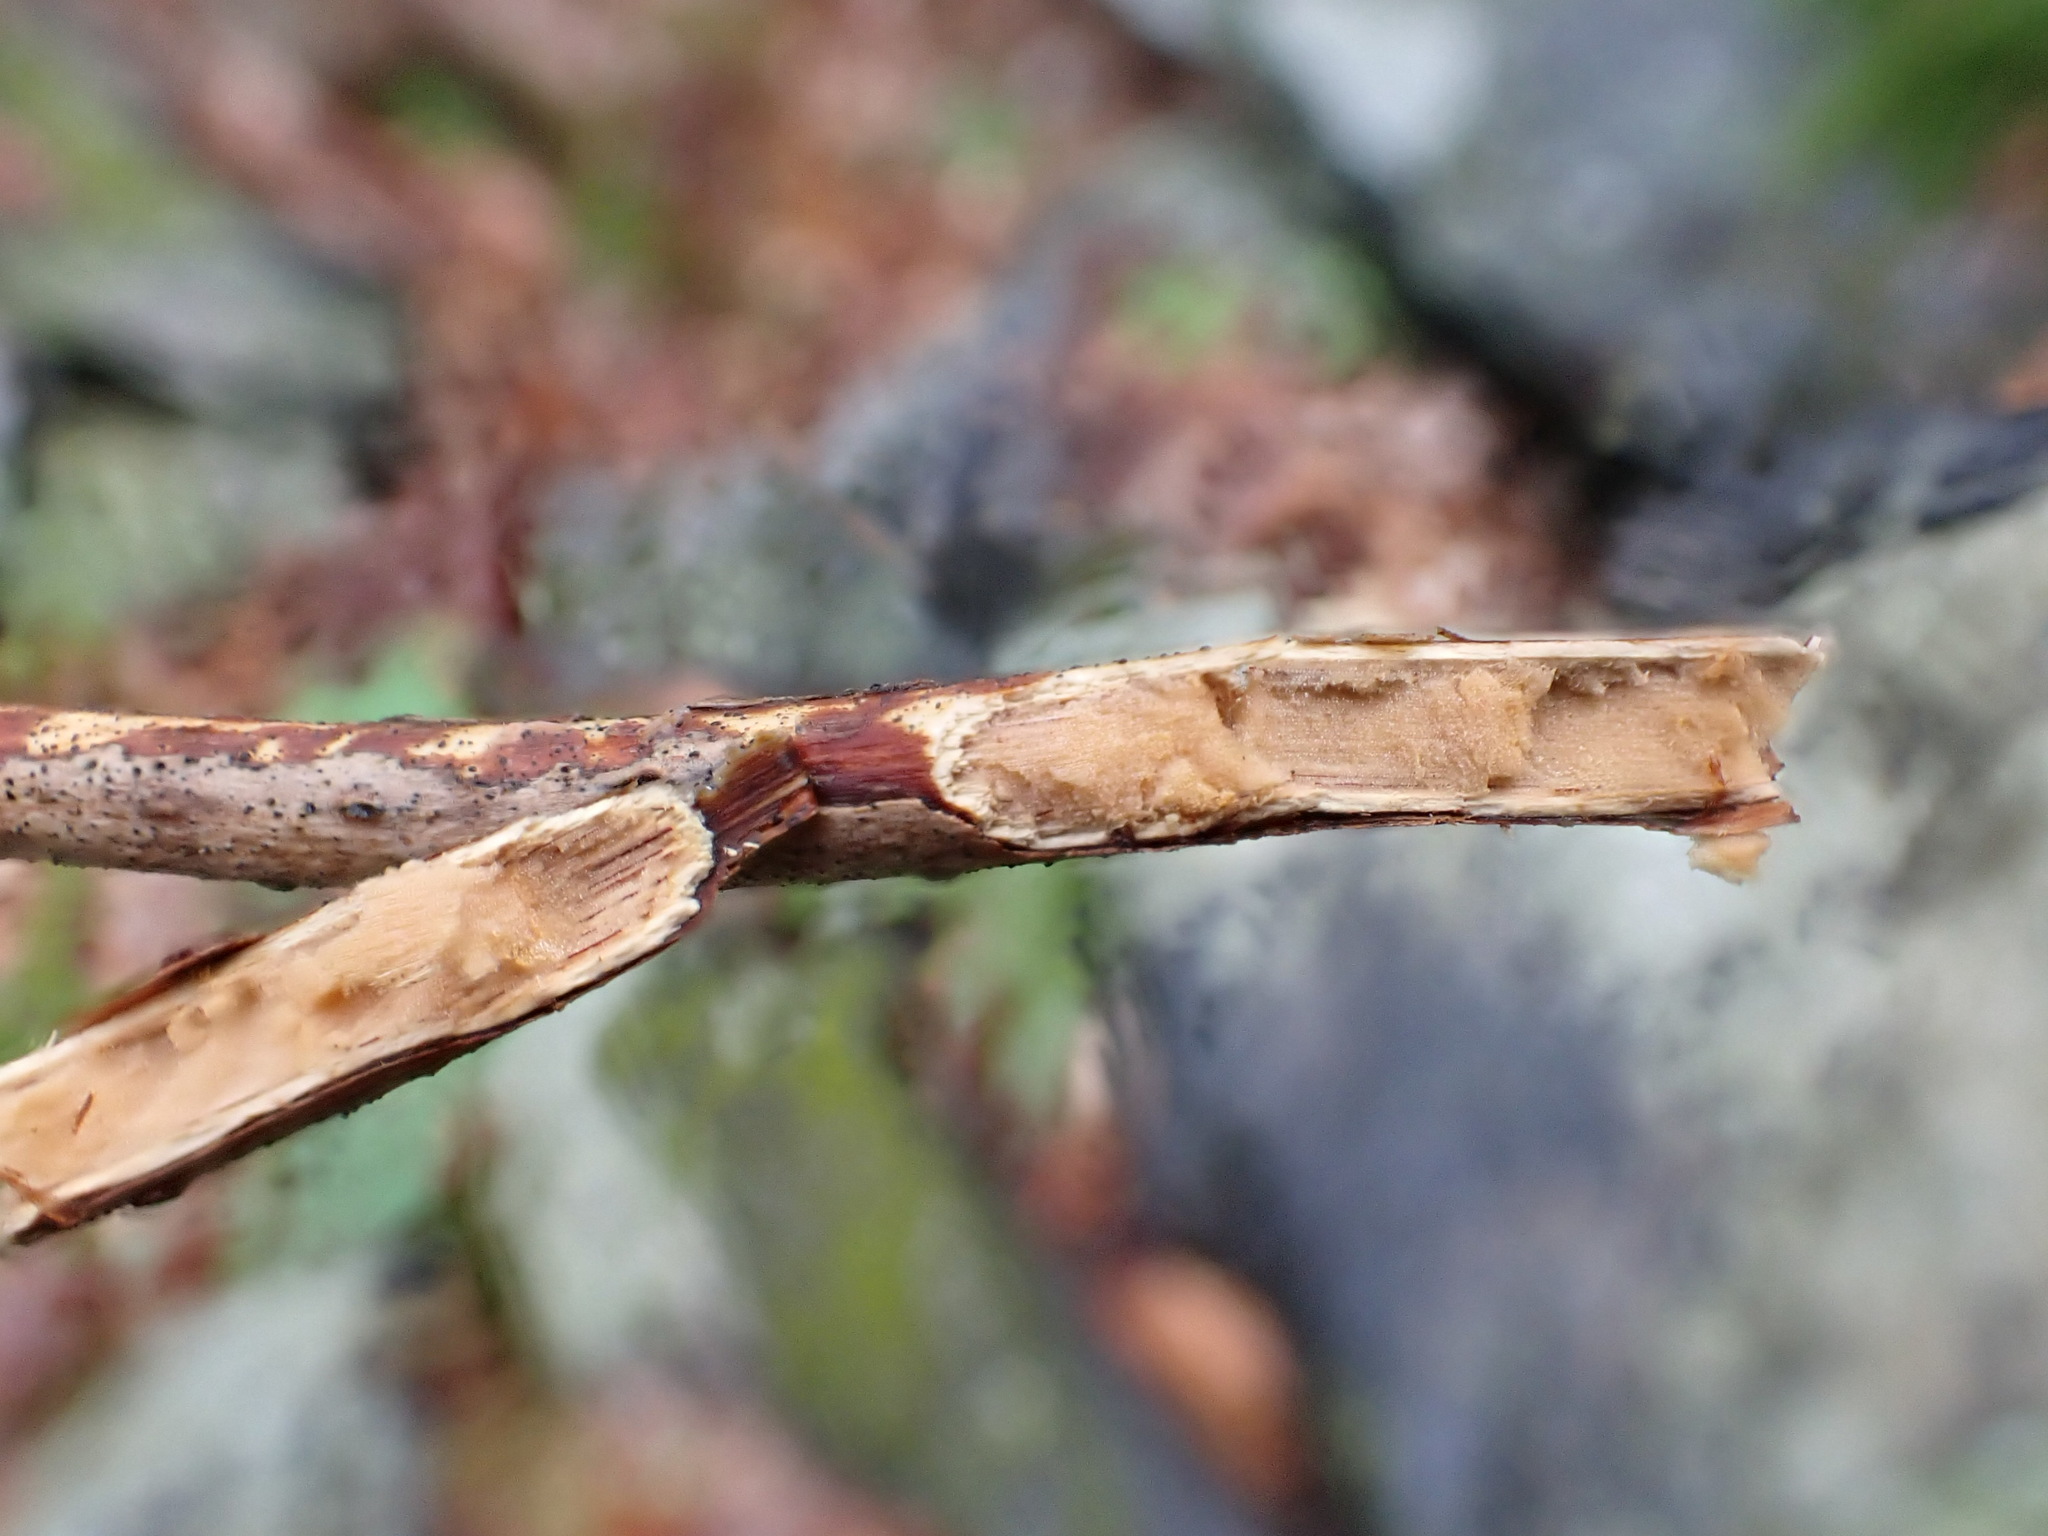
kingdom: Plantae
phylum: Tracheophyta
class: Magnoliopsida
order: Dipsacales
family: Viburnaceae
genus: Sambucus
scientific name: Sambucus racemosa
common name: Red-berried elder
